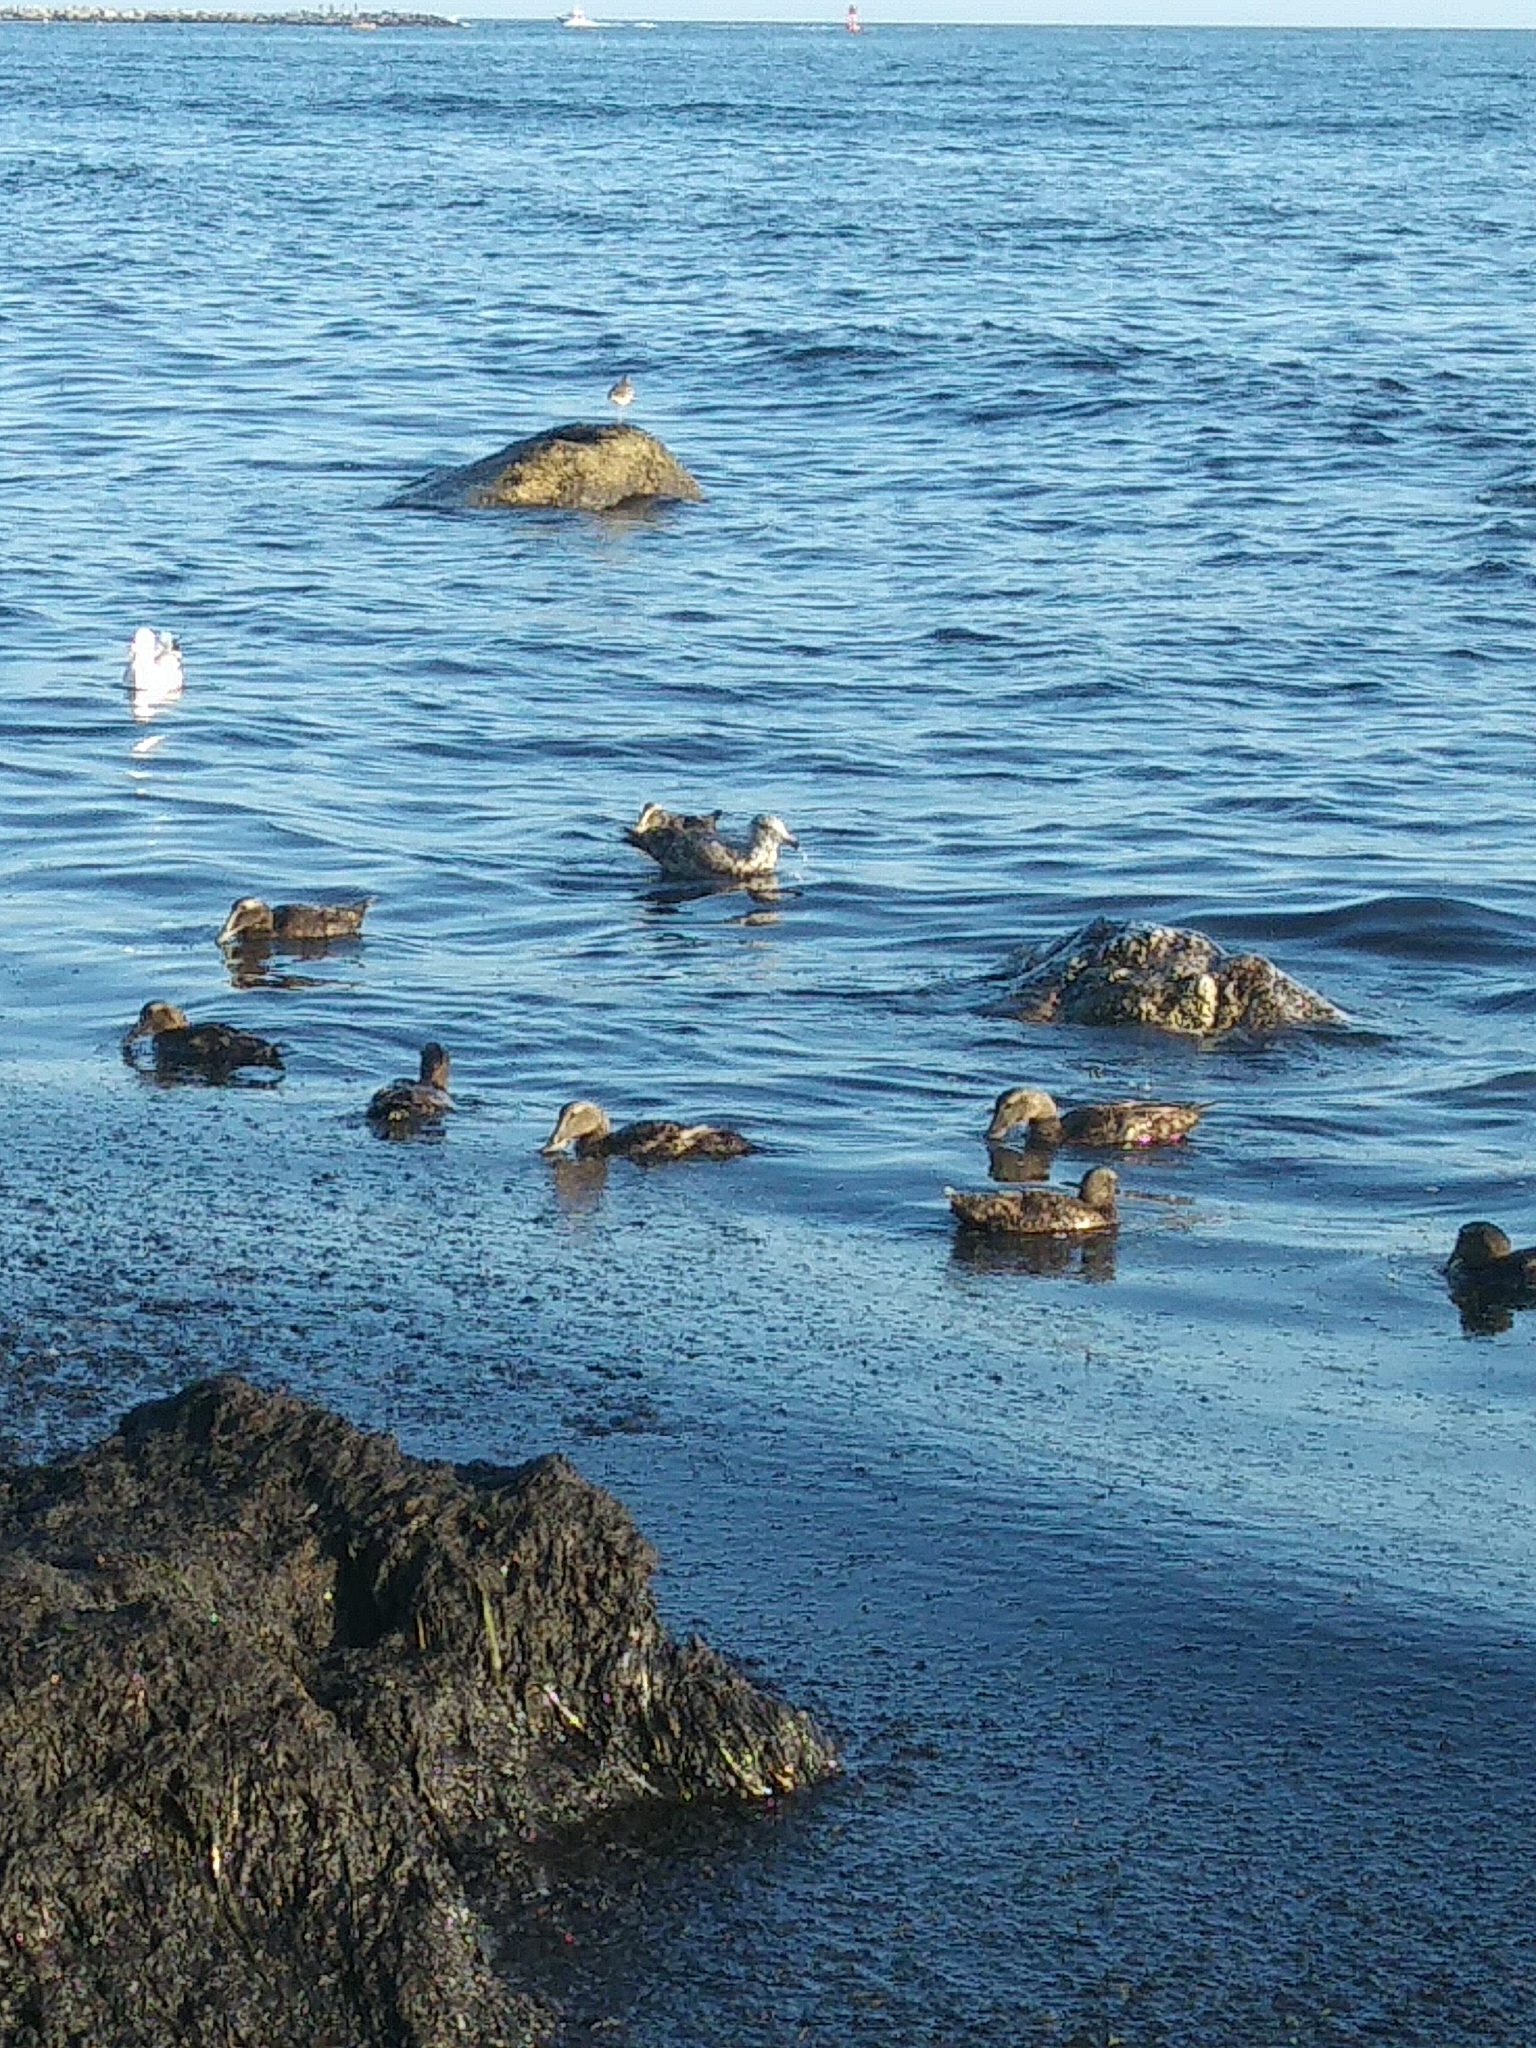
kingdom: Animalia
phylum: Chordata
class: Aves
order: Anseriformes
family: Anatidae
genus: Somateria
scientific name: Somateria mollissima
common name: Common eider
